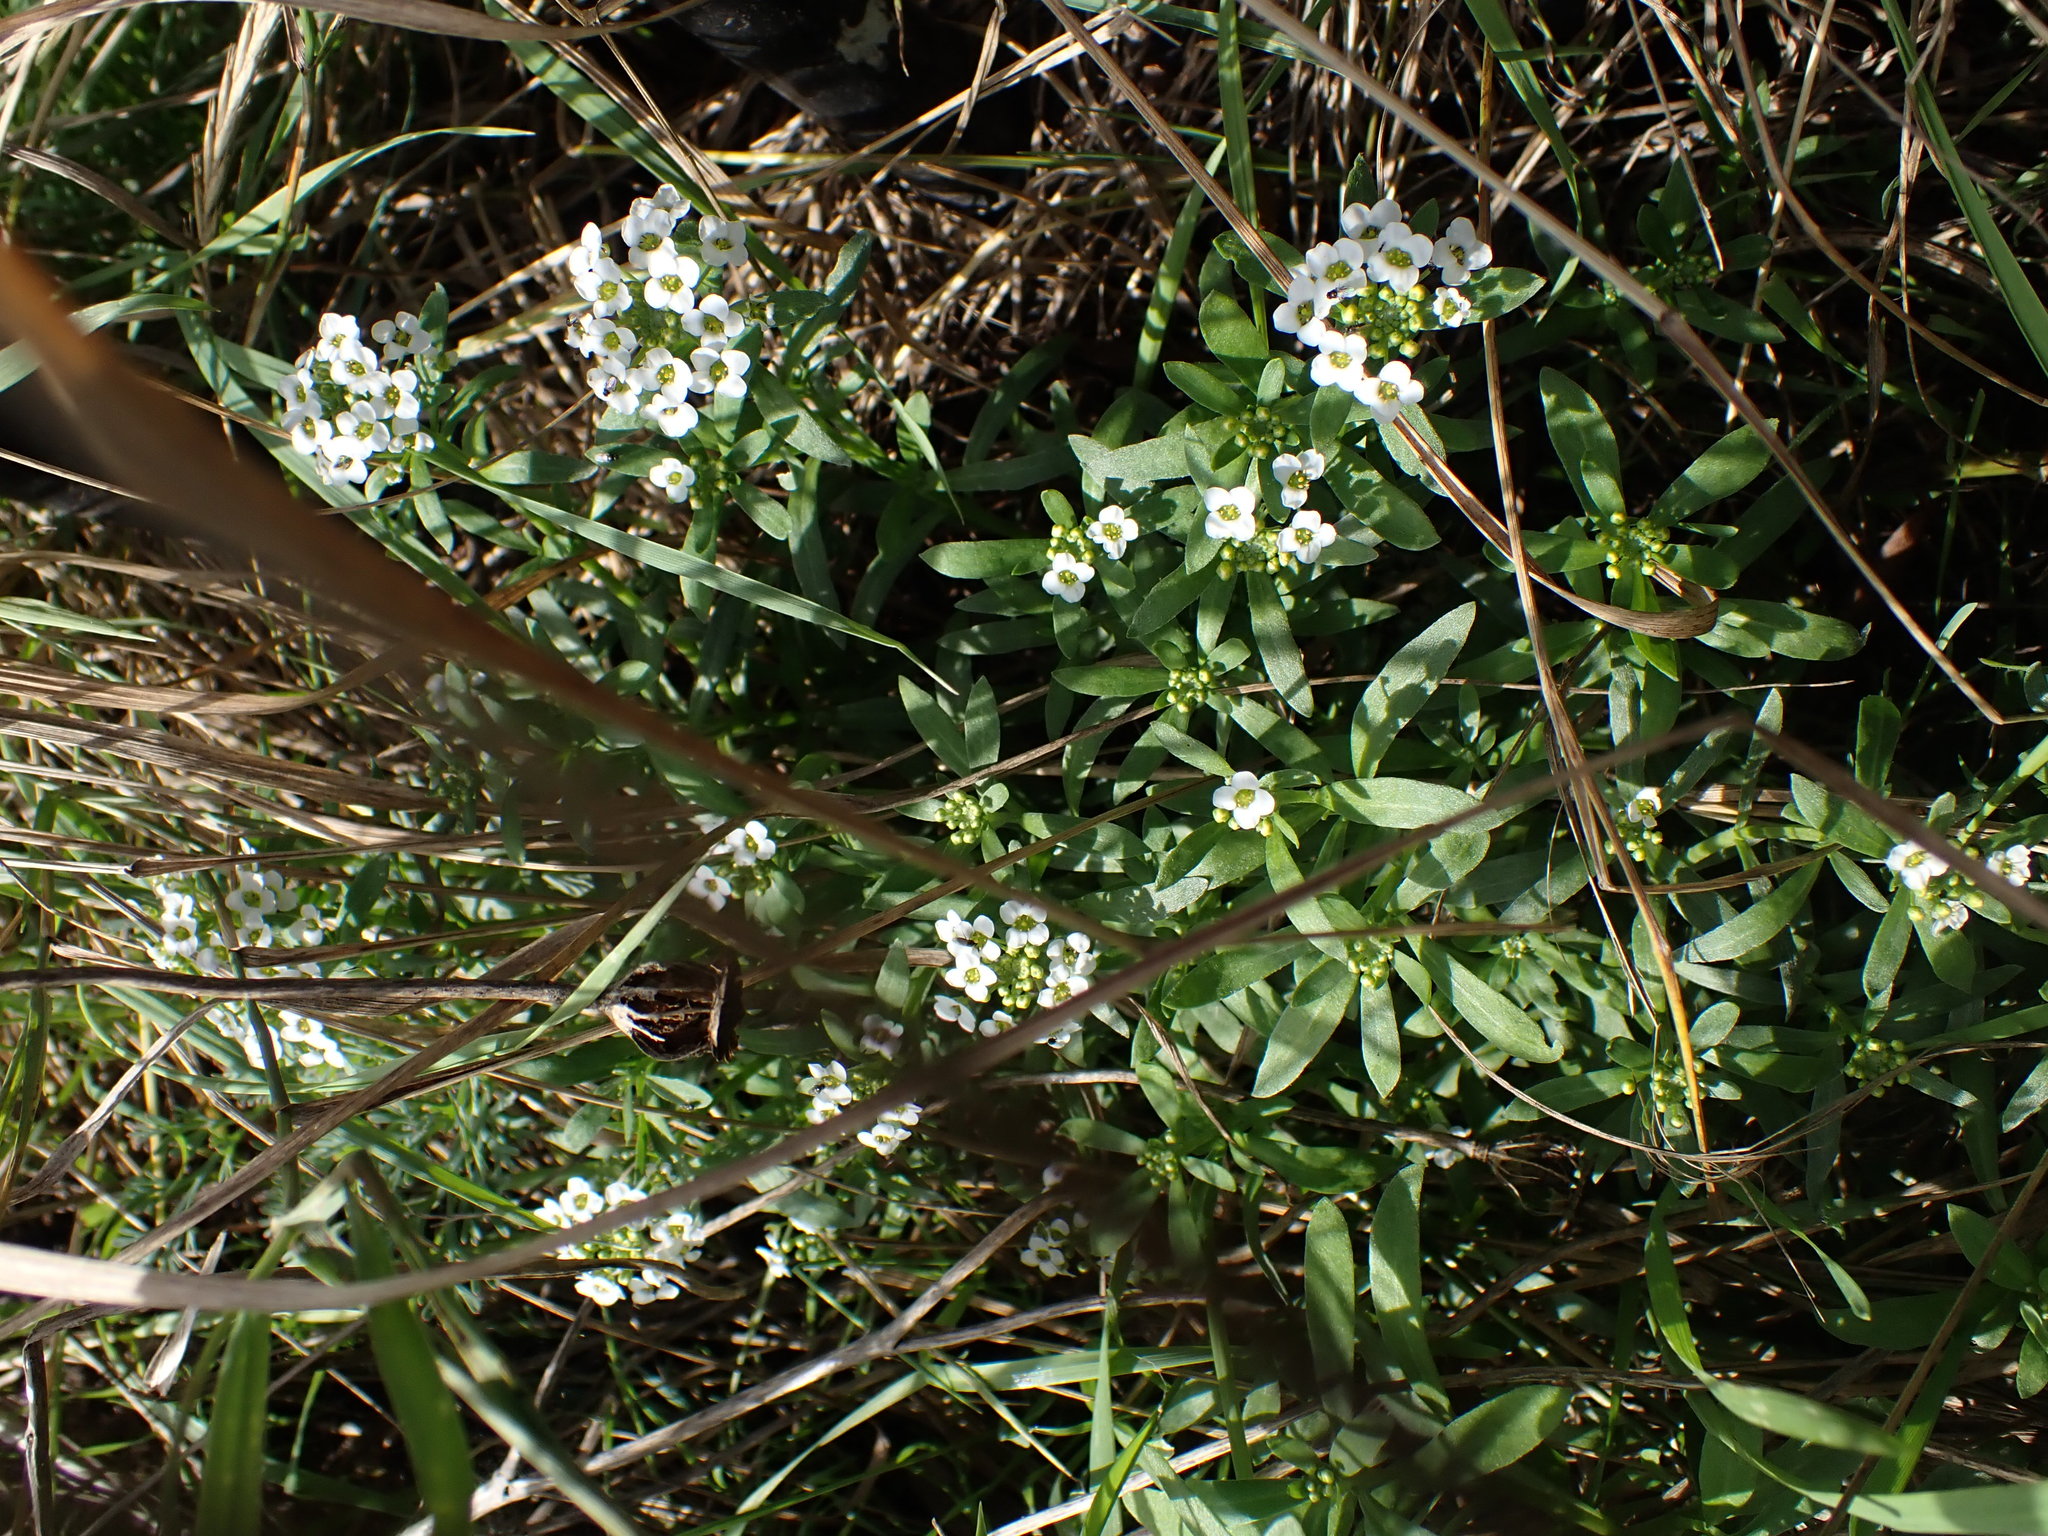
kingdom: Plantae
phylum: Tracheophyta
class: Magnoliopsida
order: Brassicales
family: Brassicaceae
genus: Lobularia
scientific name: Lobularia maritima
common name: Sweet alison
